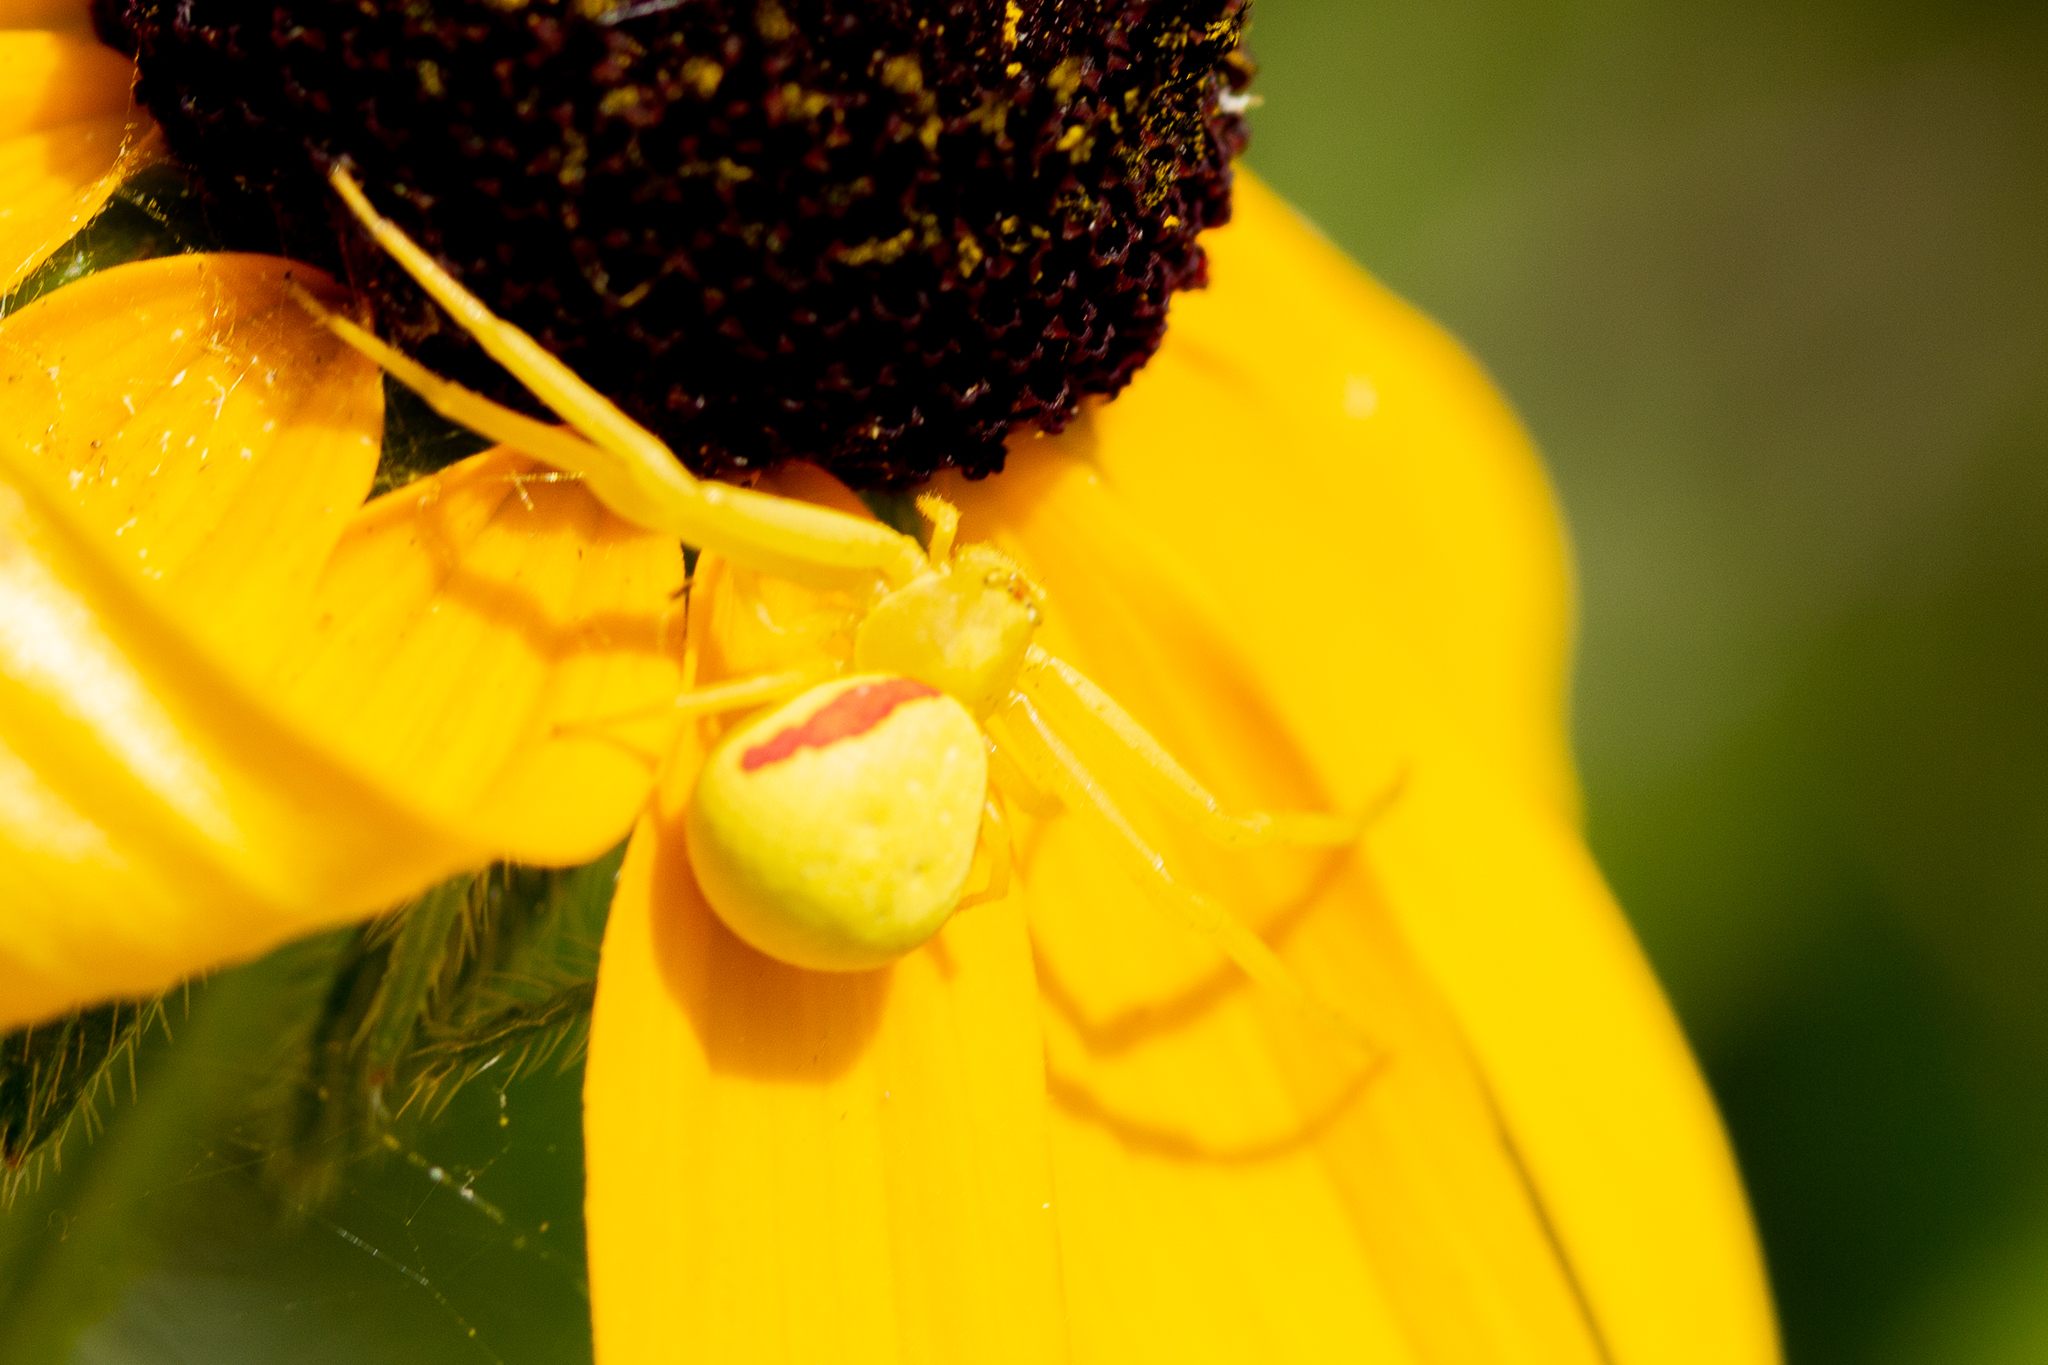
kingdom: Animalia
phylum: Arthropoda
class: Arachnida
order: Araneae
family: Thomisidae
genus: Misumena
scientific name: Misumena vatia
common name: Goldenrod crab spider
